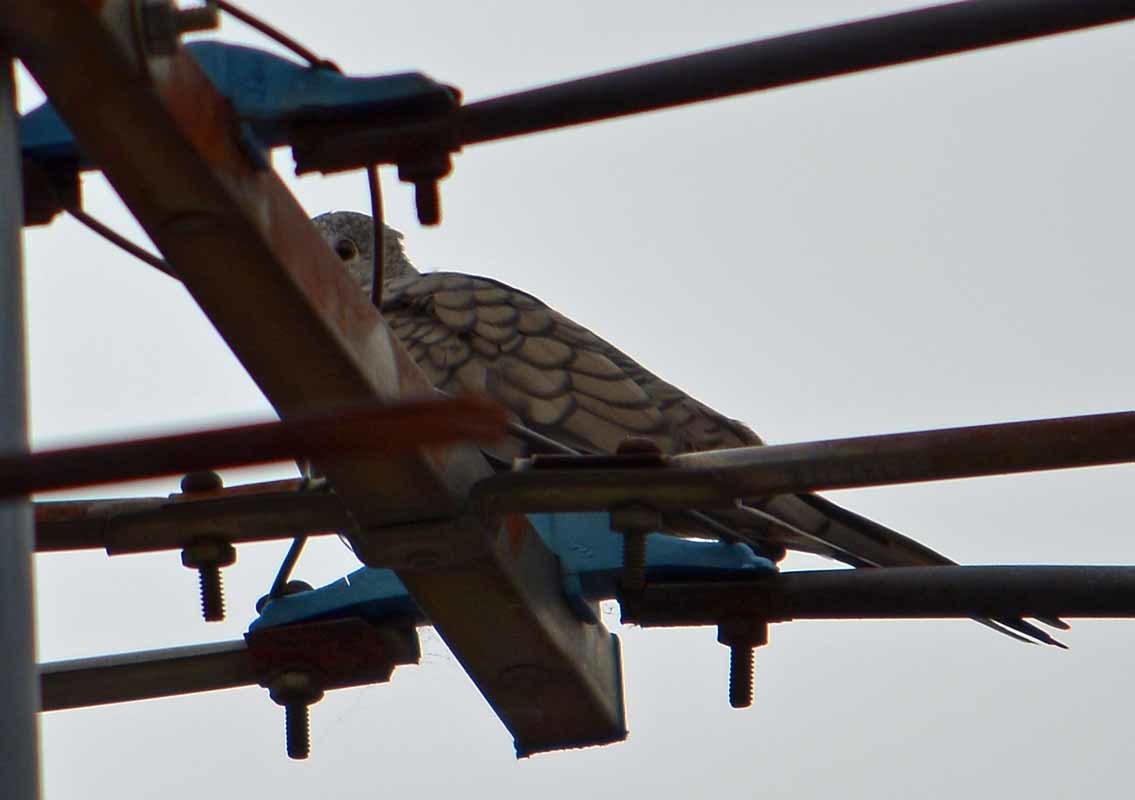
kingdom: Animalia
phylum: Chordata
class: Aves
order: Columbiformes
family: Columbidae
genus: Columbina
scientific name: Columbina inca
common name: Inca dove
